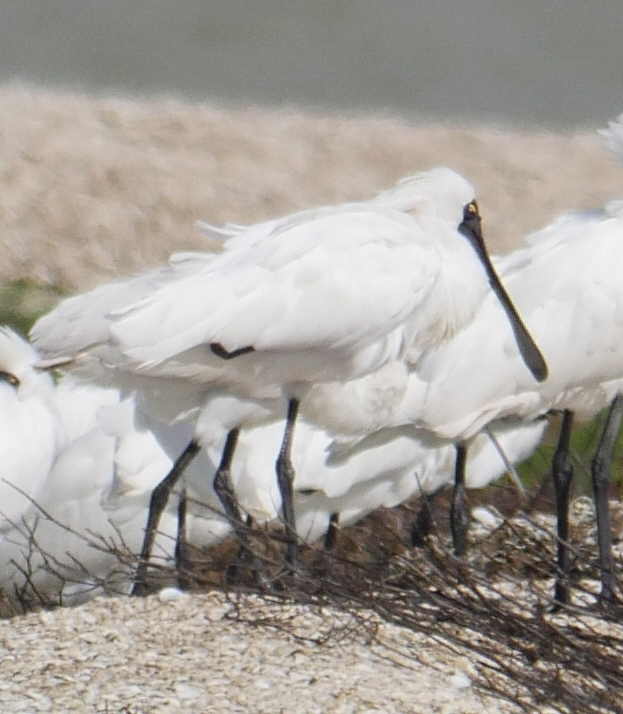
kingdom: Animalia
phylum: Chordata
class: Aves
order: Pelecaniformes
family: Threskiornithidae
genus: Platalea
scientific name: Platalea regia
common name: Royal spoonbill
